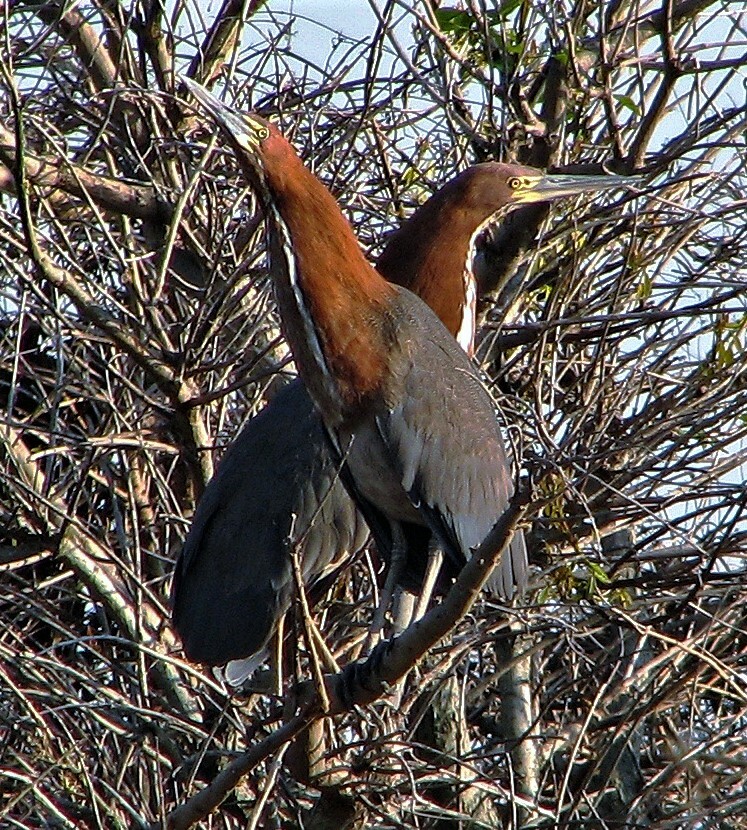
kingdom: Animalia
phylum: Chordata
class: Aves
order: Pelecaniformes
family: Ardeidae
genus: Tigrisoma
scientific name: Tigrisoma lineatum
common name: Rufescent tiger-heron
